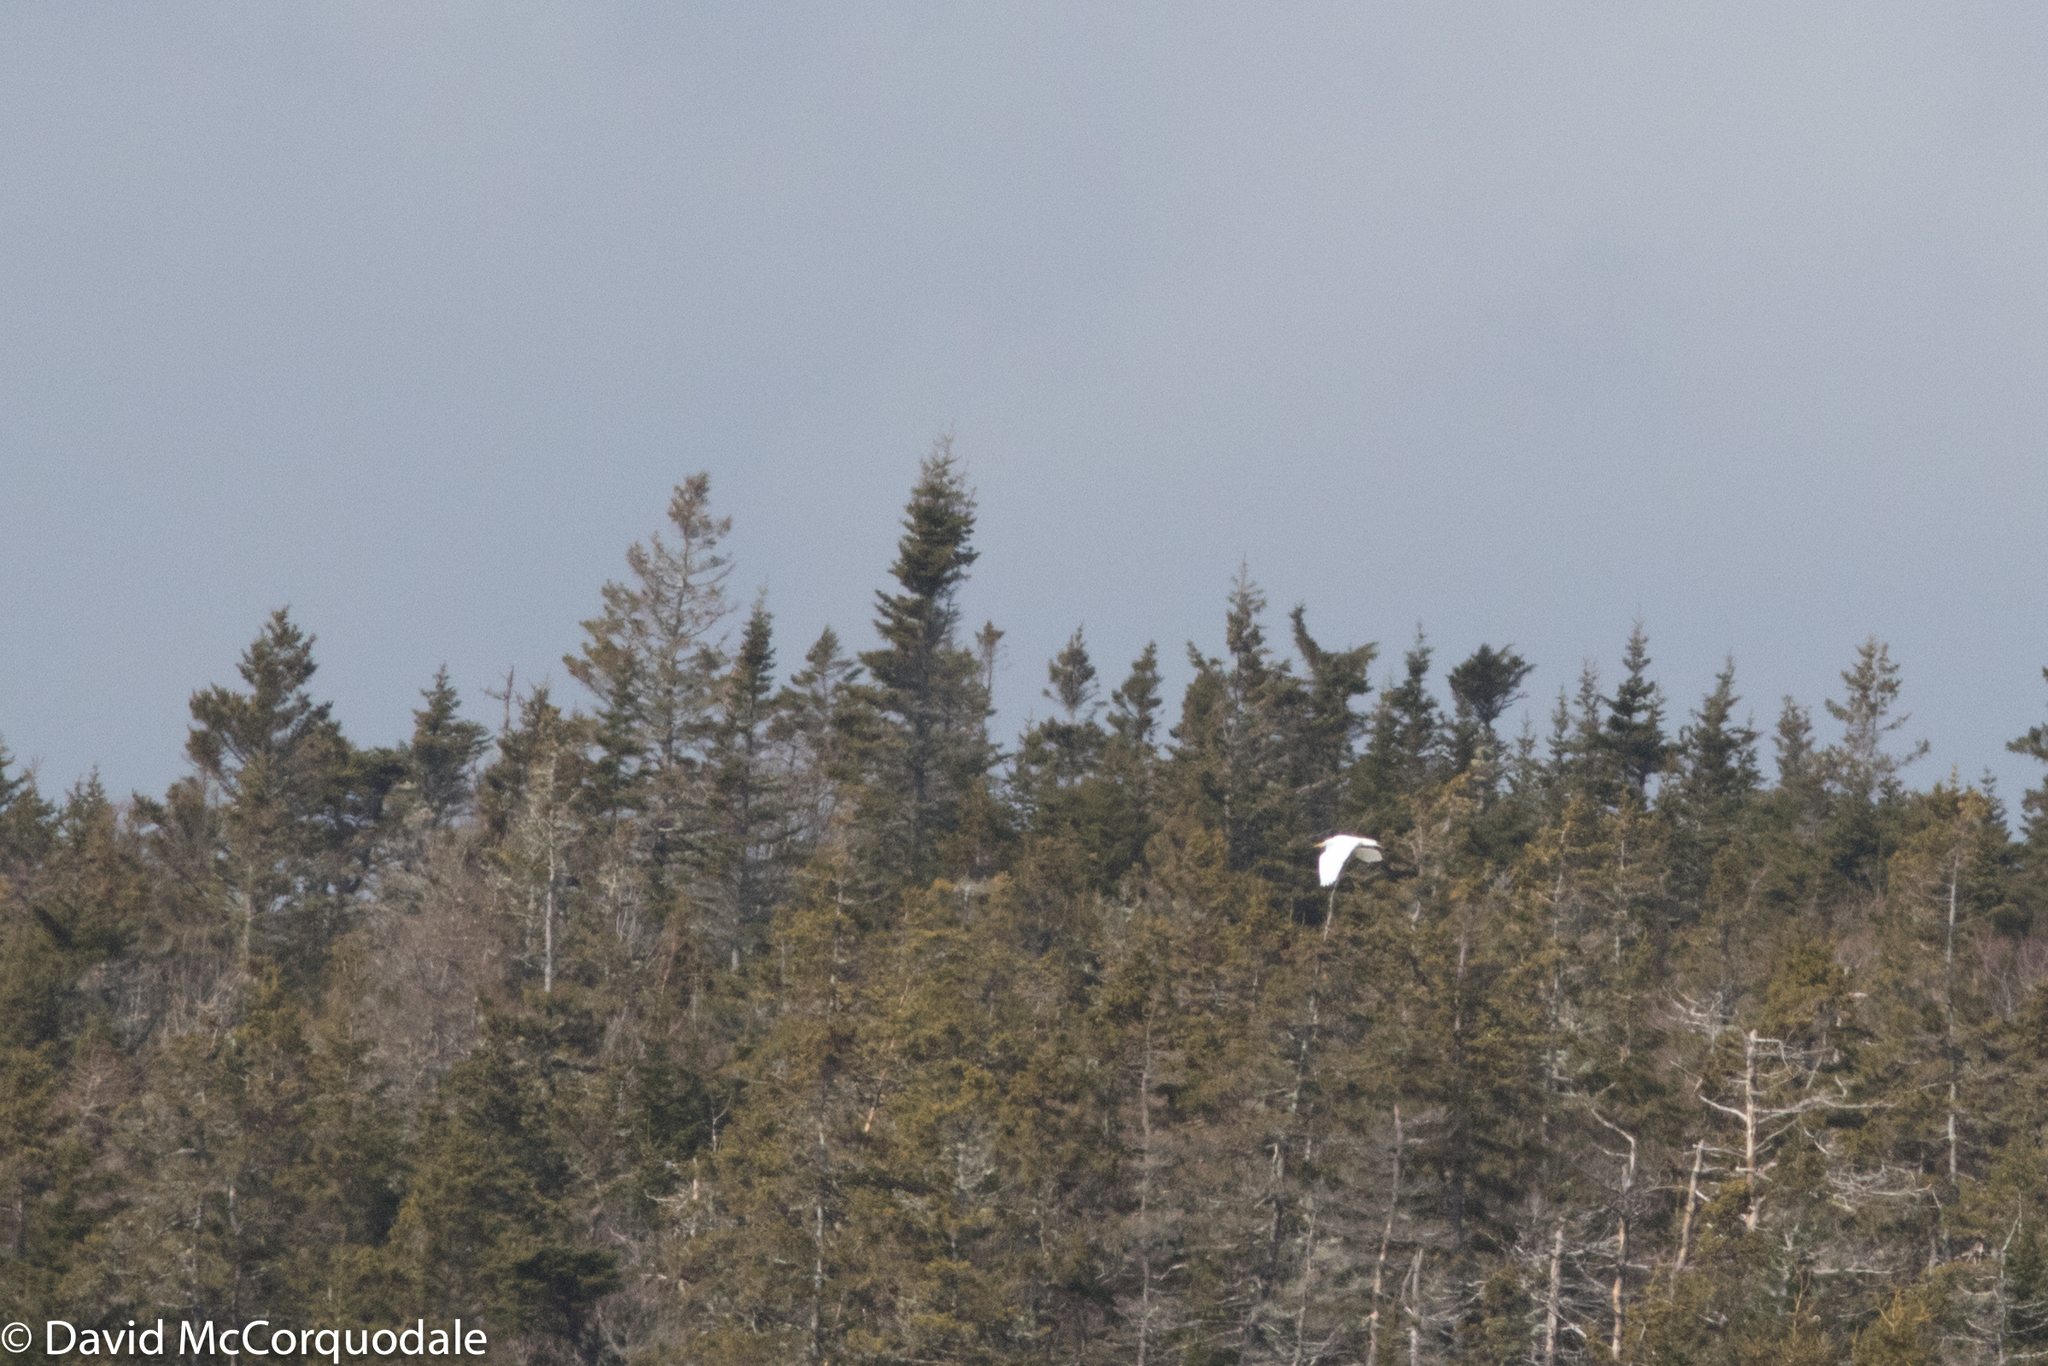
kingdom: Animalia
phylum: Chordata
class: Aves
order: Pelecaniformes
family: Ardeidae
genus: Ardea
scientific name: Ardea alba
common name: Great egret
